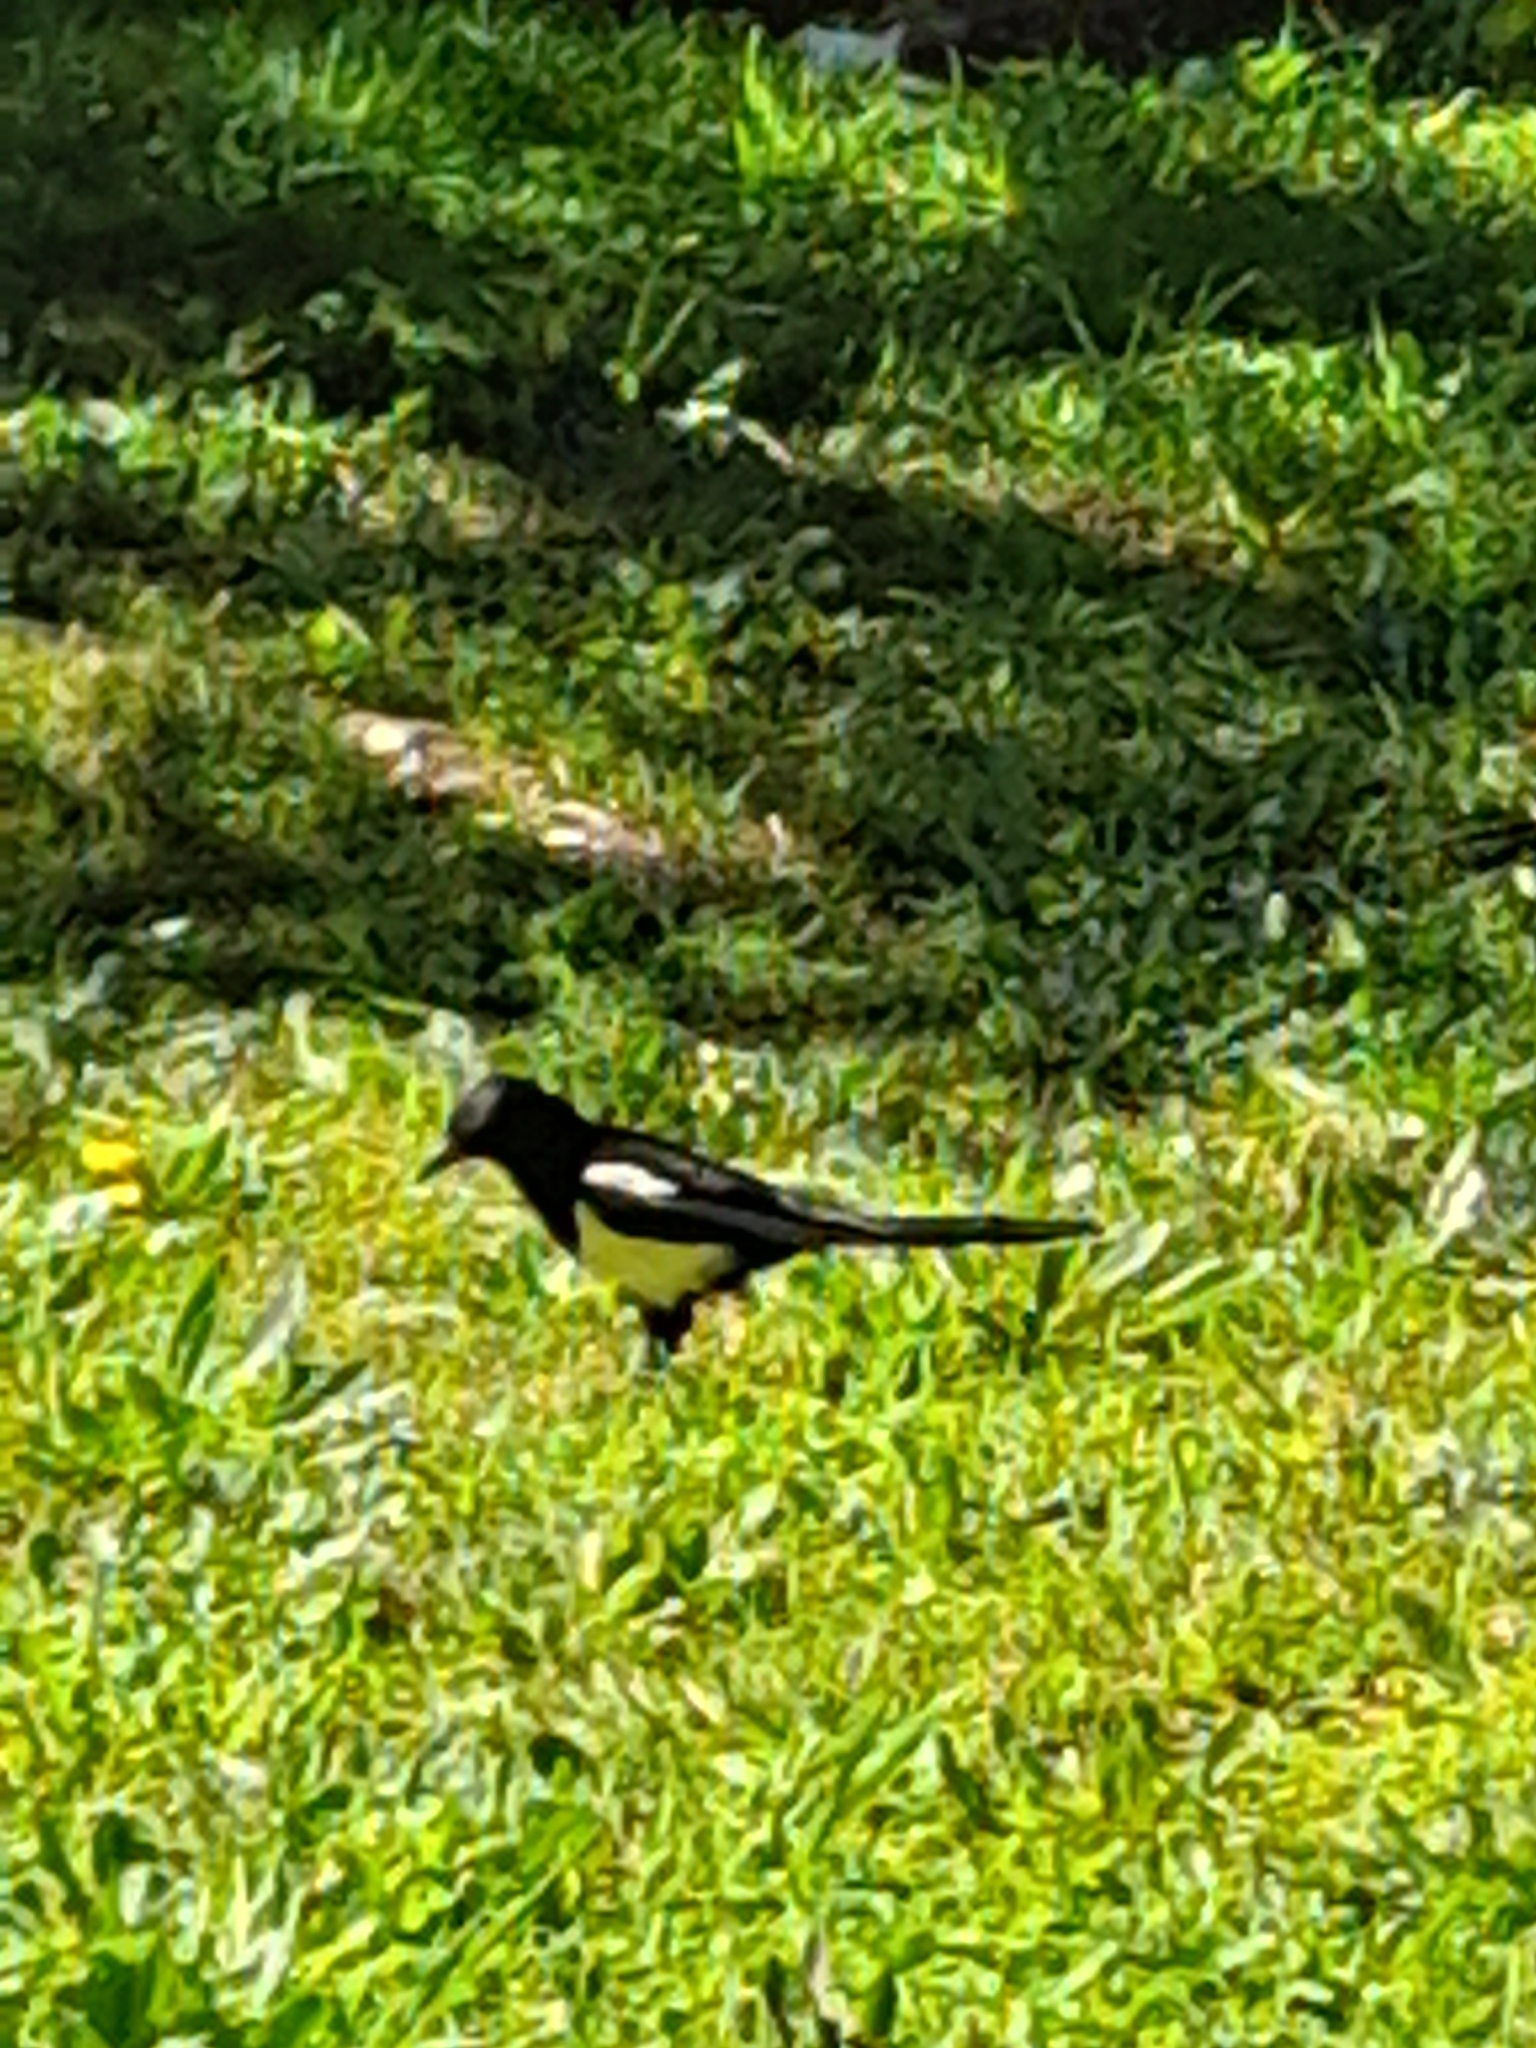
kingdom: Animalia
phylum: Chordata
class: Aves
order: Passeriformes
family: Corvidae
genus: Pica
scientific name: Pica pica
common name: Eurasian magpie
